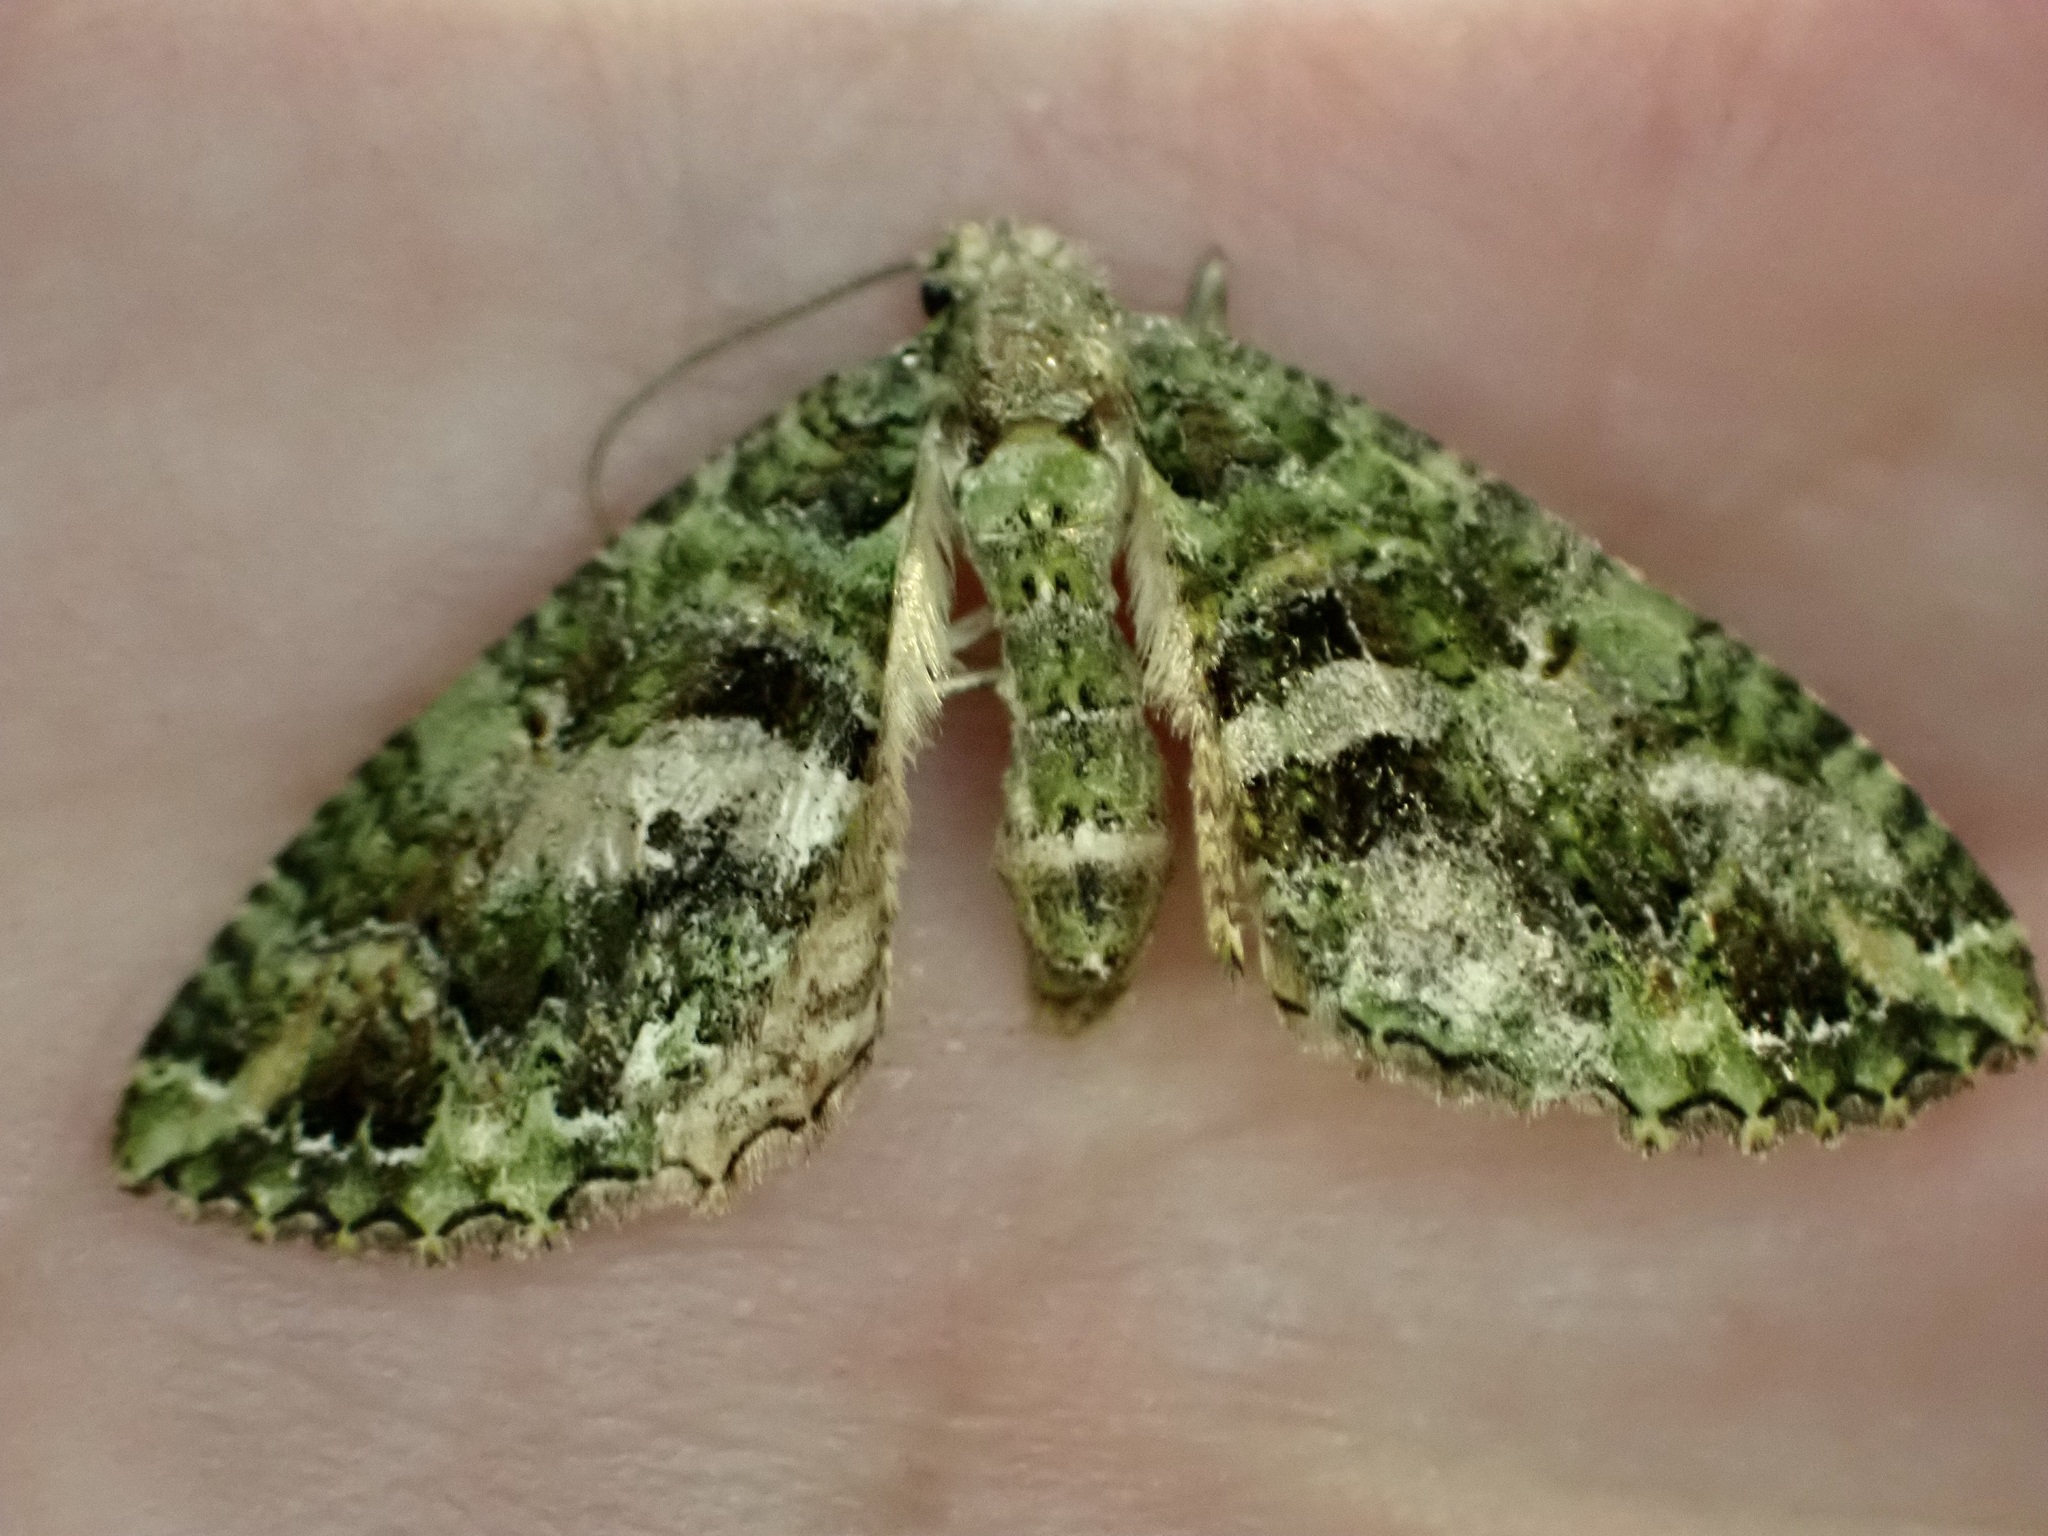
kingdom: Animalia
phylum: Arthropoda
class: Insecta
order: Lepidoptera
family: Geometridae
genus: Austrocidaria
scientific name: Austrocidaria similata
